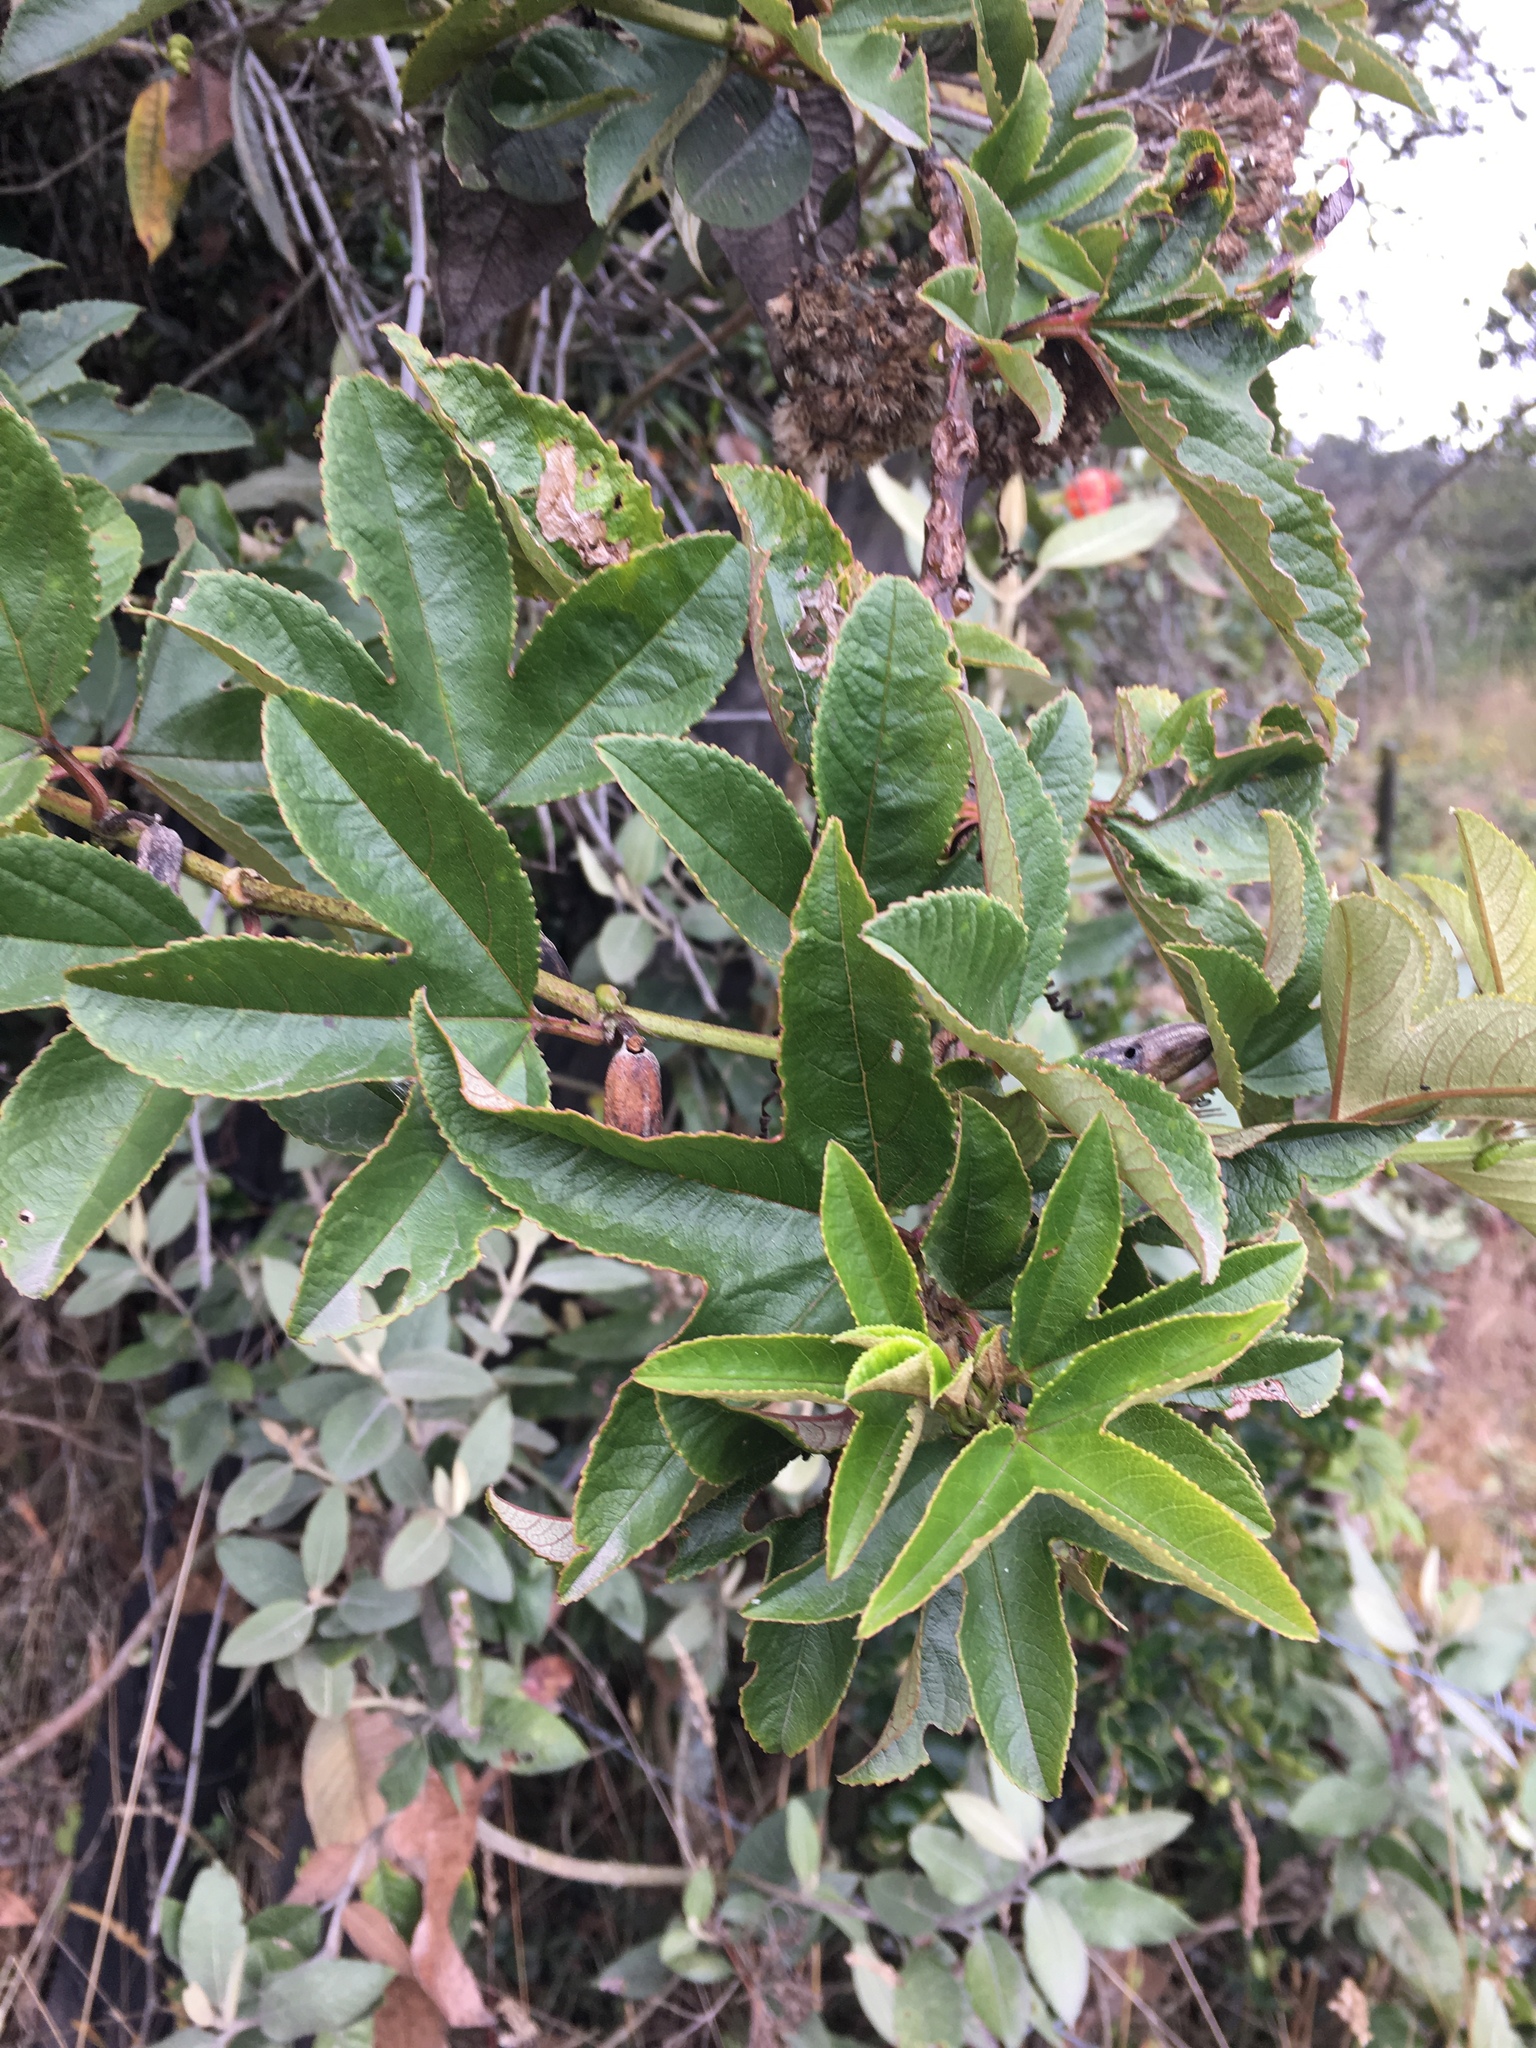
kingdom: Plantae
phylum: Tracheophyta
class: Magnoliopsida
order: Malpighiales
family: Passifloraceae
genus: Passiflora
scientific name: Passiflora mixta
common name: Passion flower
